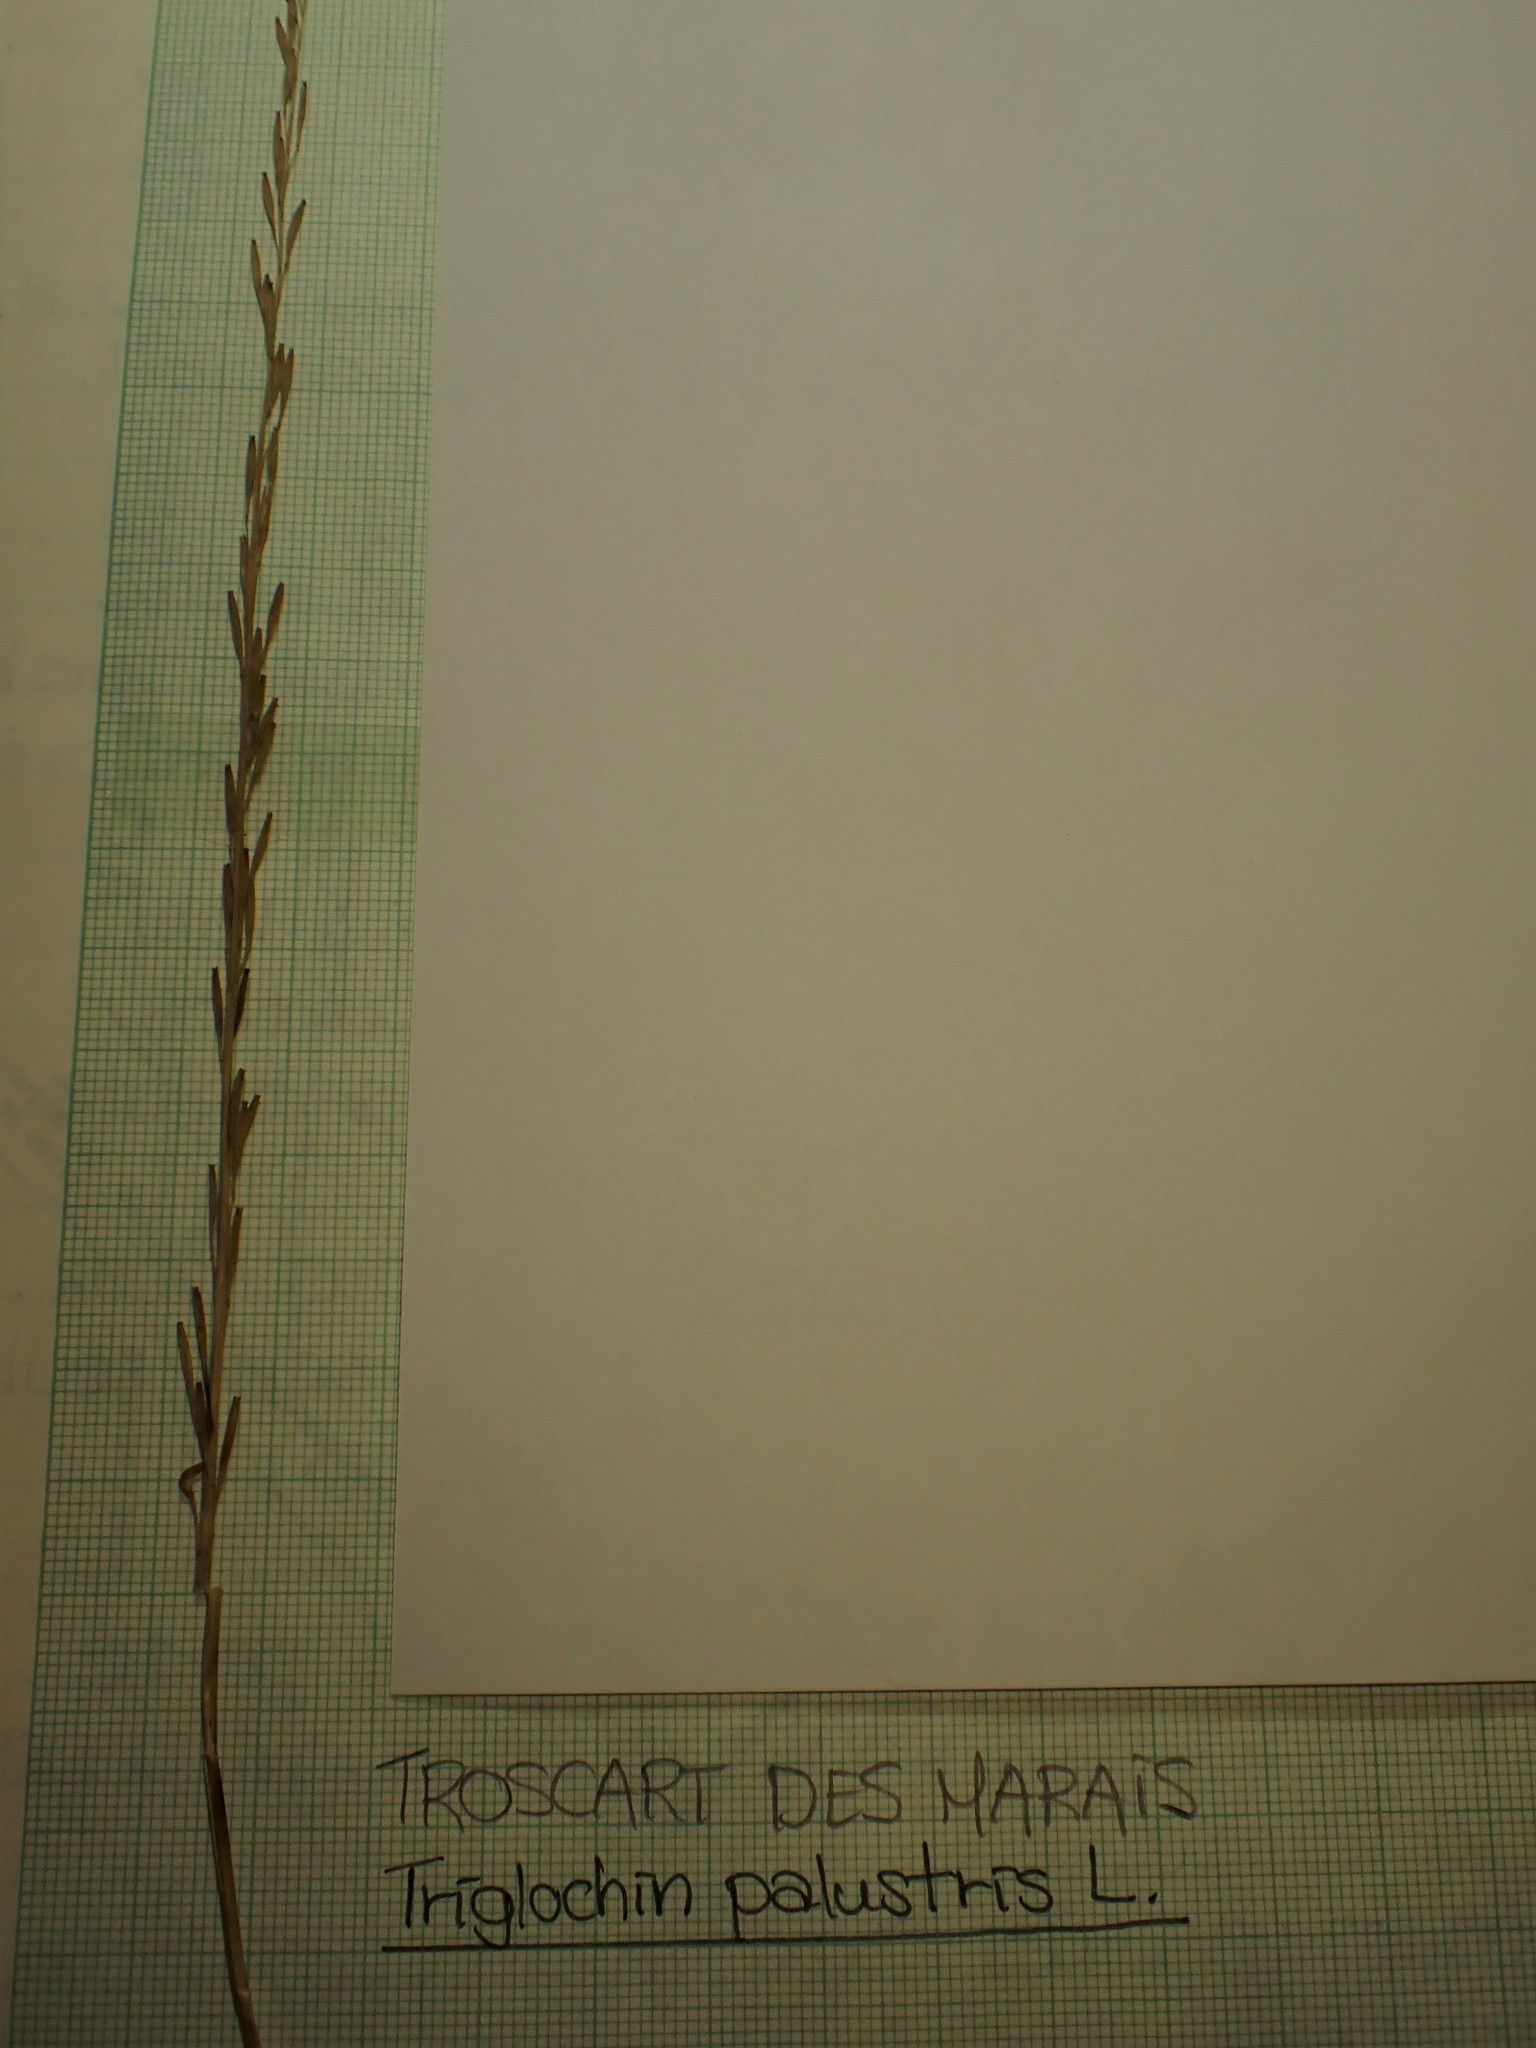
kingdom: Plantae
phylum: Tracheophyta
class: Liliopsida
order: Alismatales
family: Juncaginaceae
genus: Triglochin
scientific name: Triglochin palustris
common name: Marsh arrowgrass
